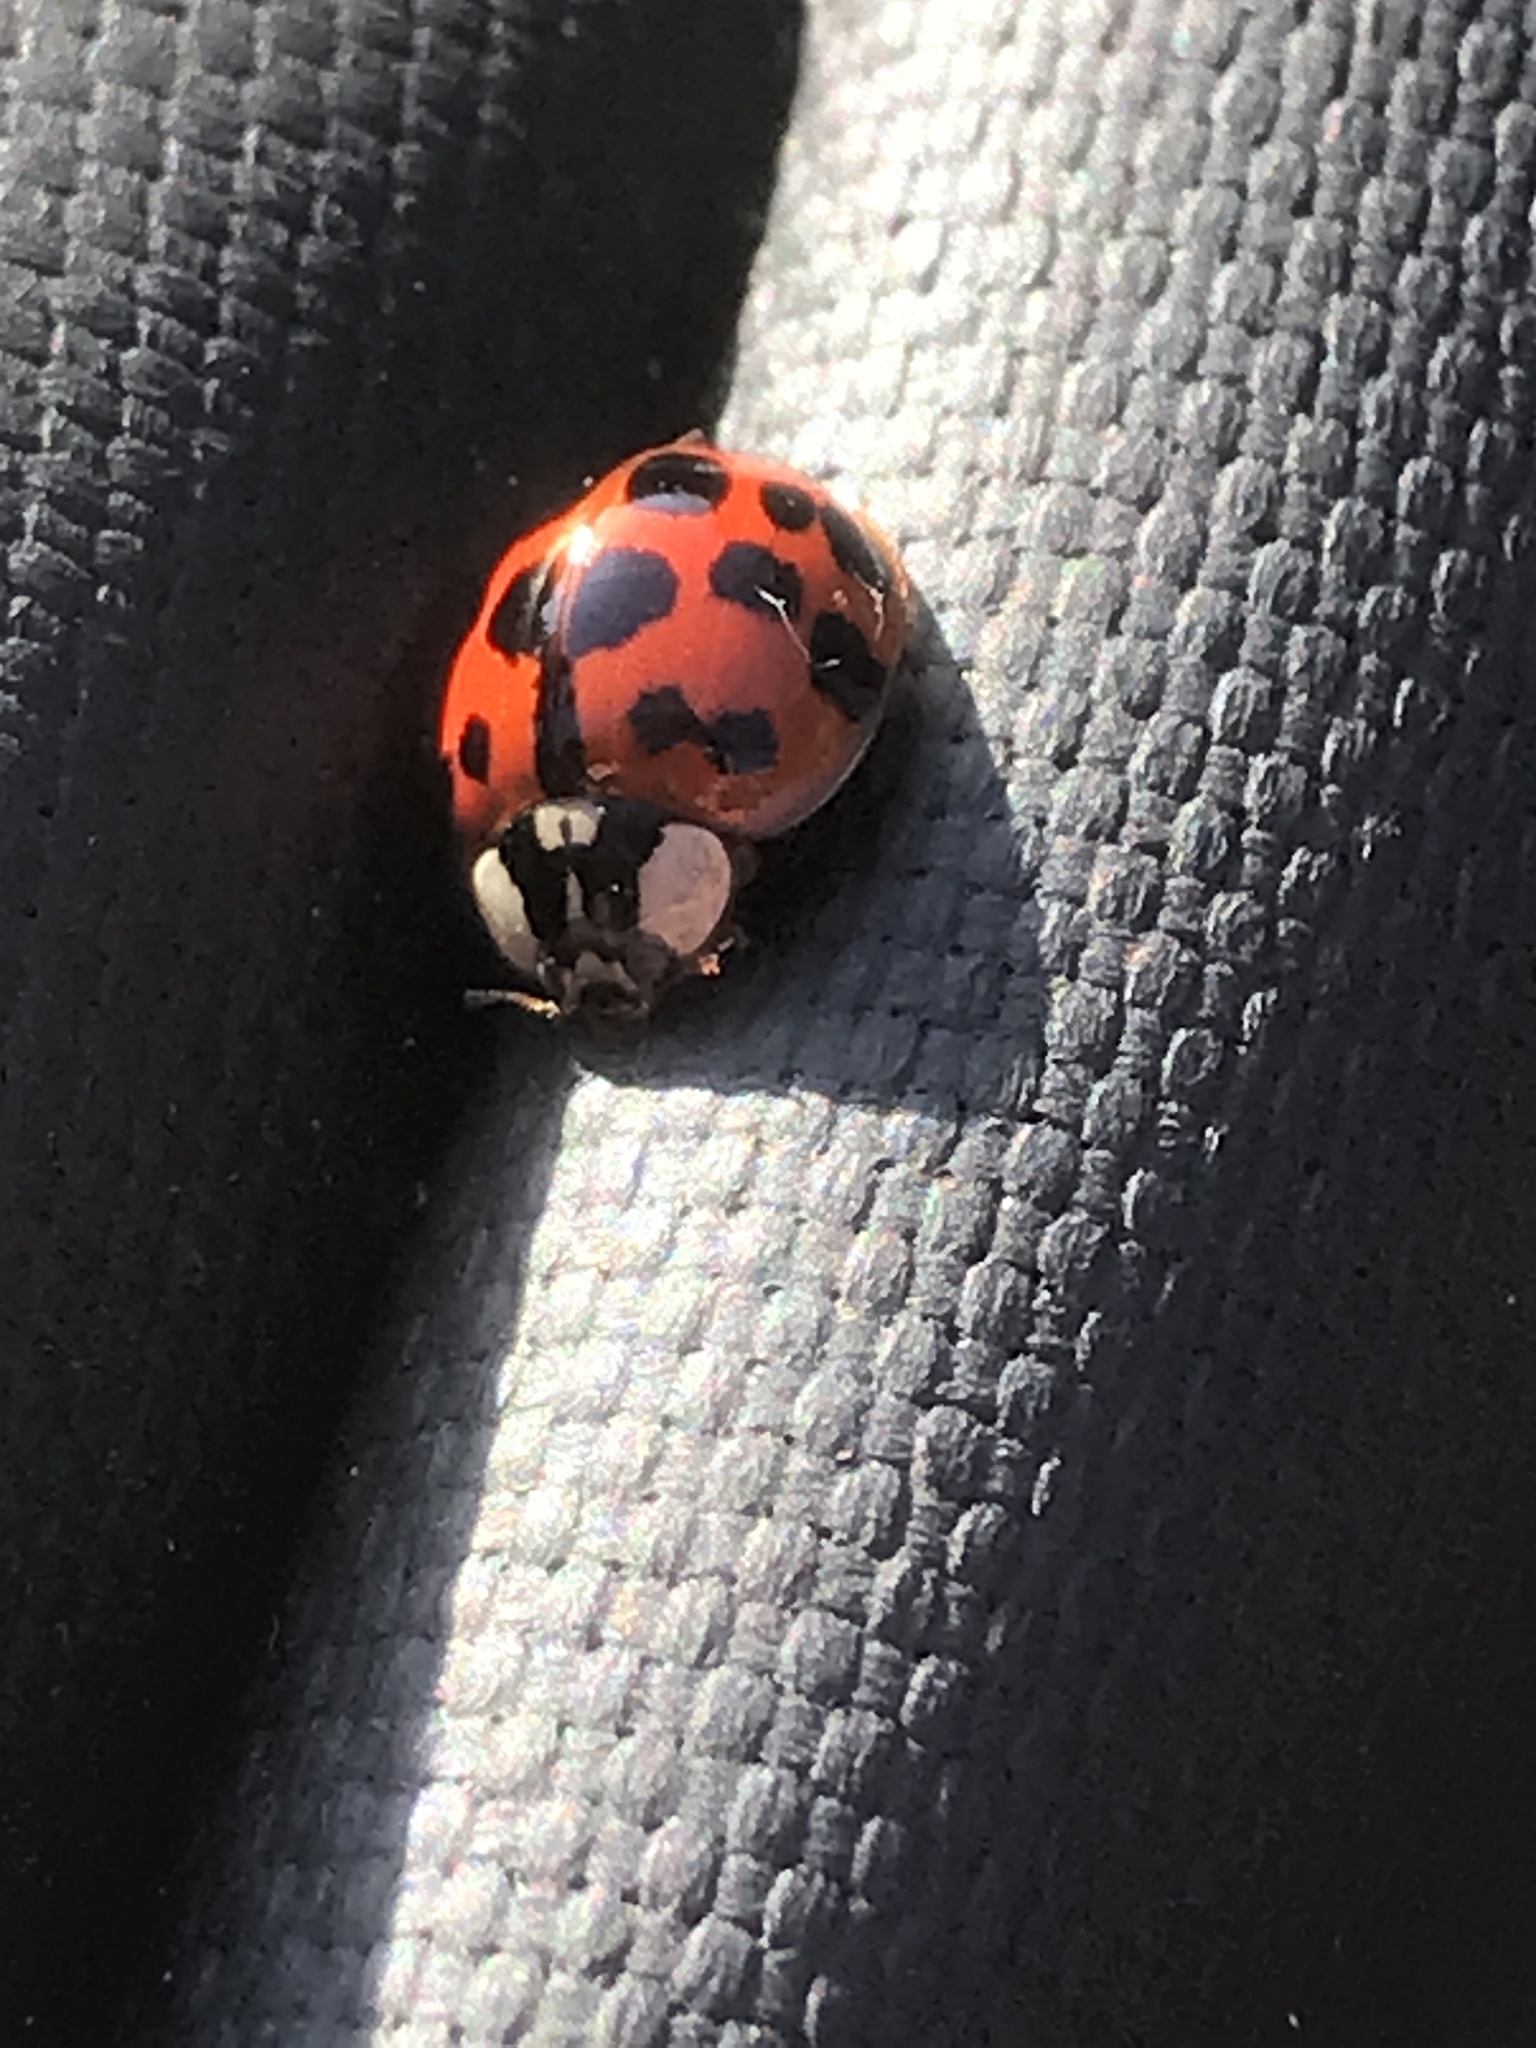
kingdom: Animalia
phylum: Arthropoda
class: Insecta
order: Coleoptera
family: Coccinellidae
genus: Harmonia
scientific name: Harmonia axyridis
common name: Harlequin ladybird
